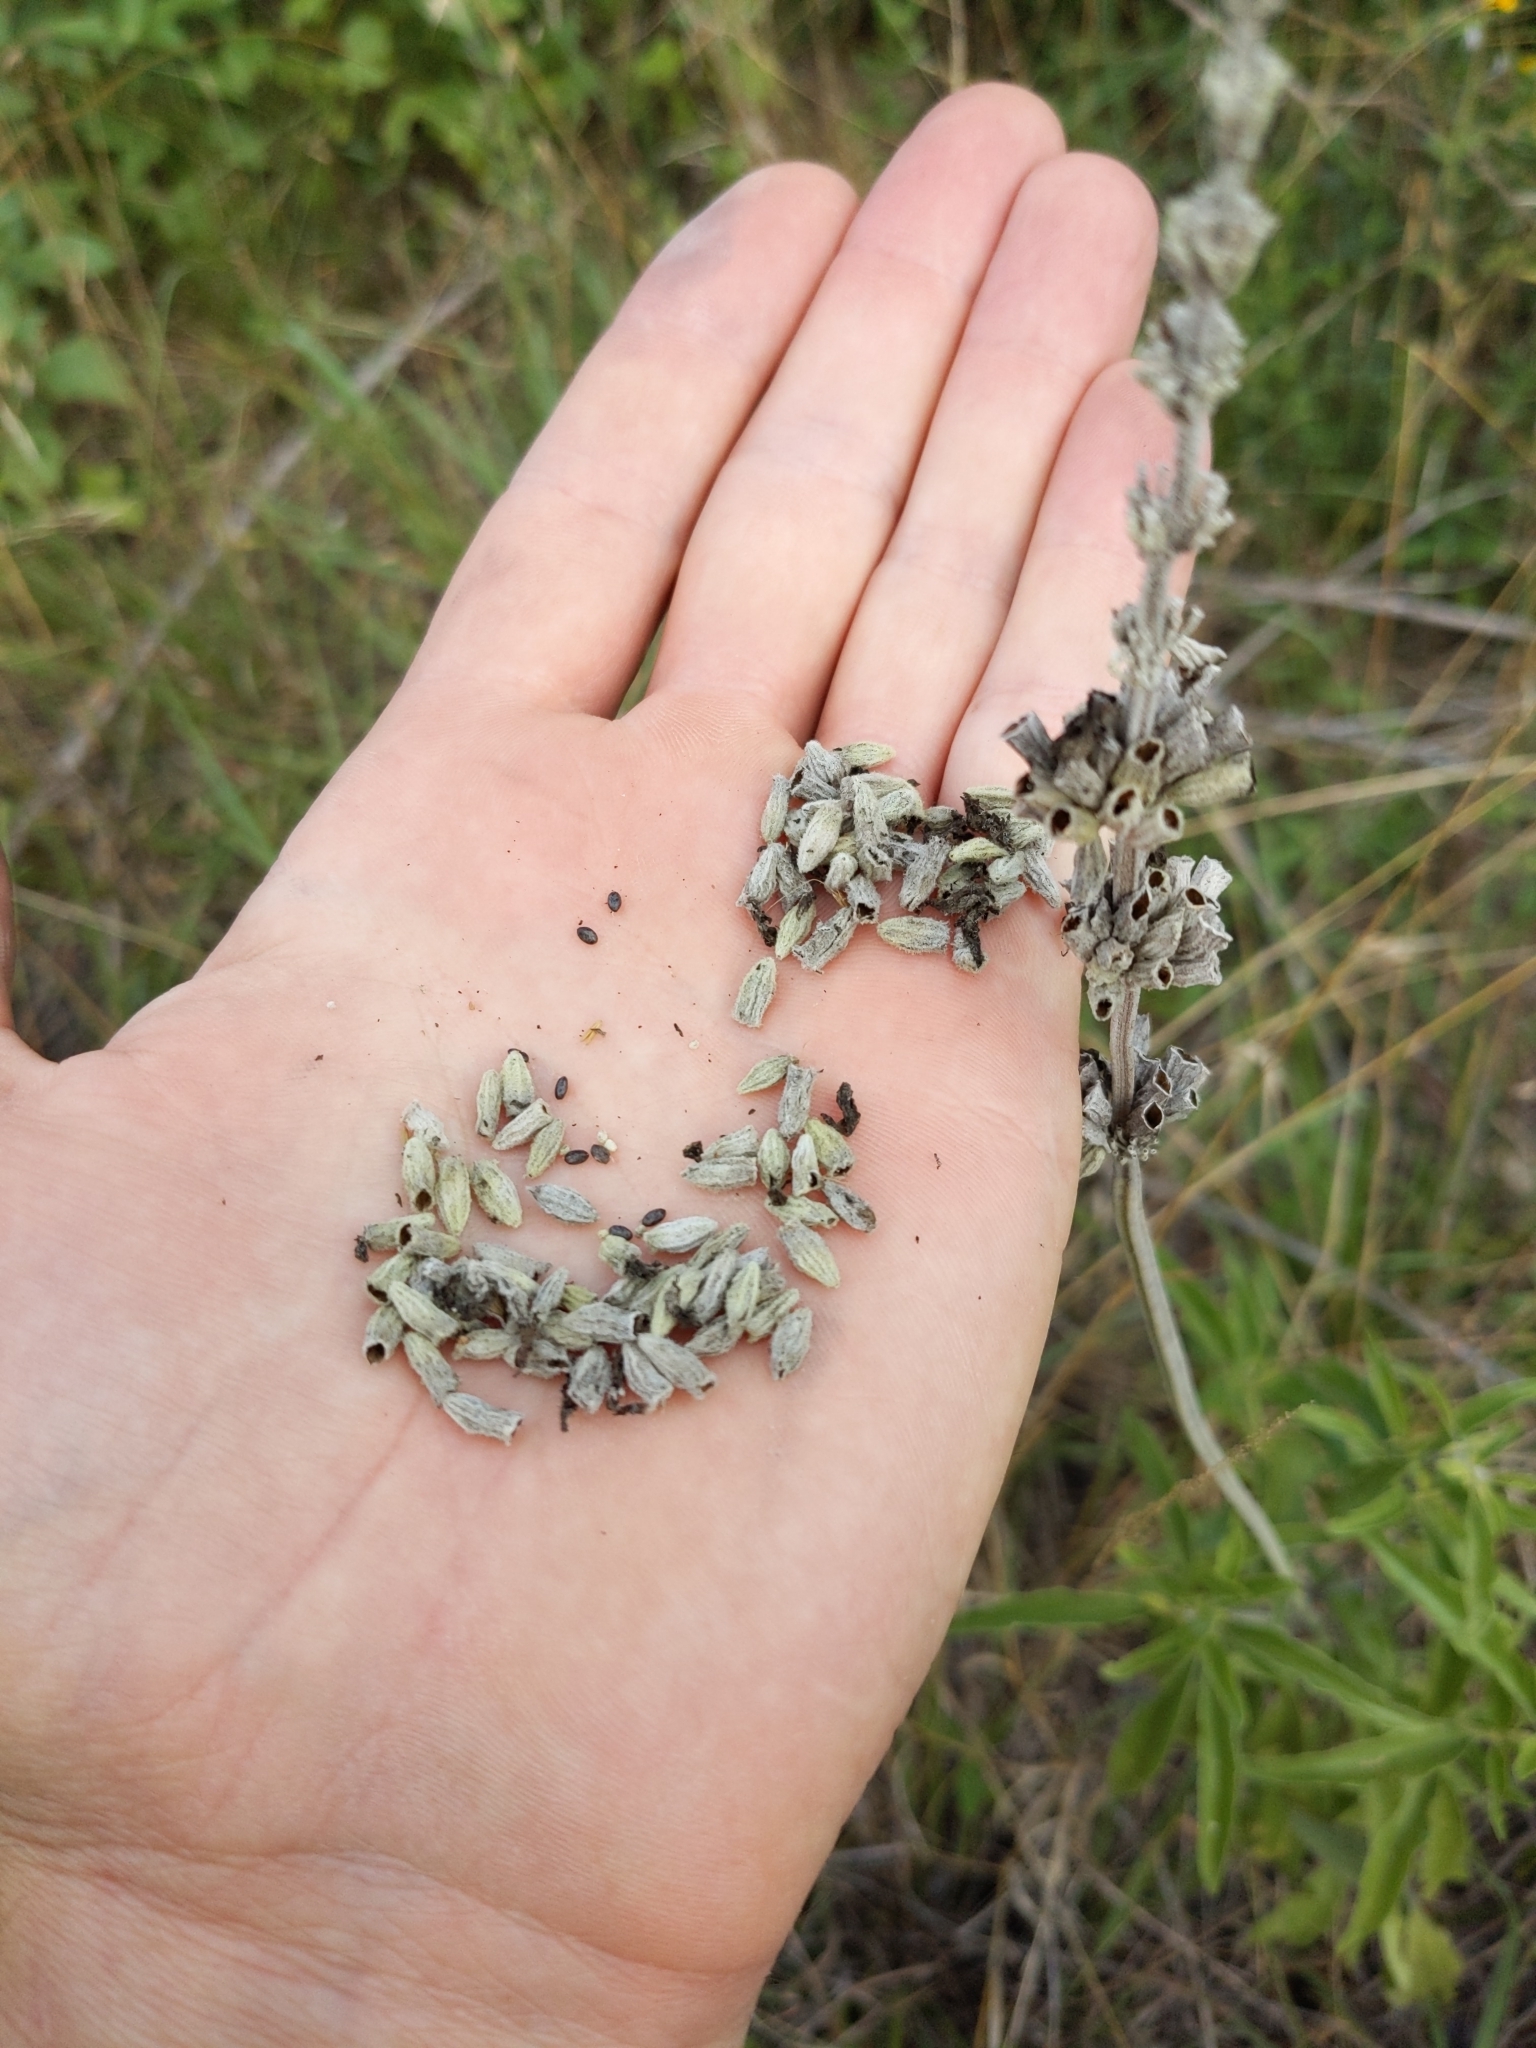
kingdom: Plantae
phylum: Tracheophyta
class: Magnoliopsida
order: Lamiales
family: Lamiaceae
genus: Salvia
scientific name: Salvia farinacea
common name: Mealy sage
